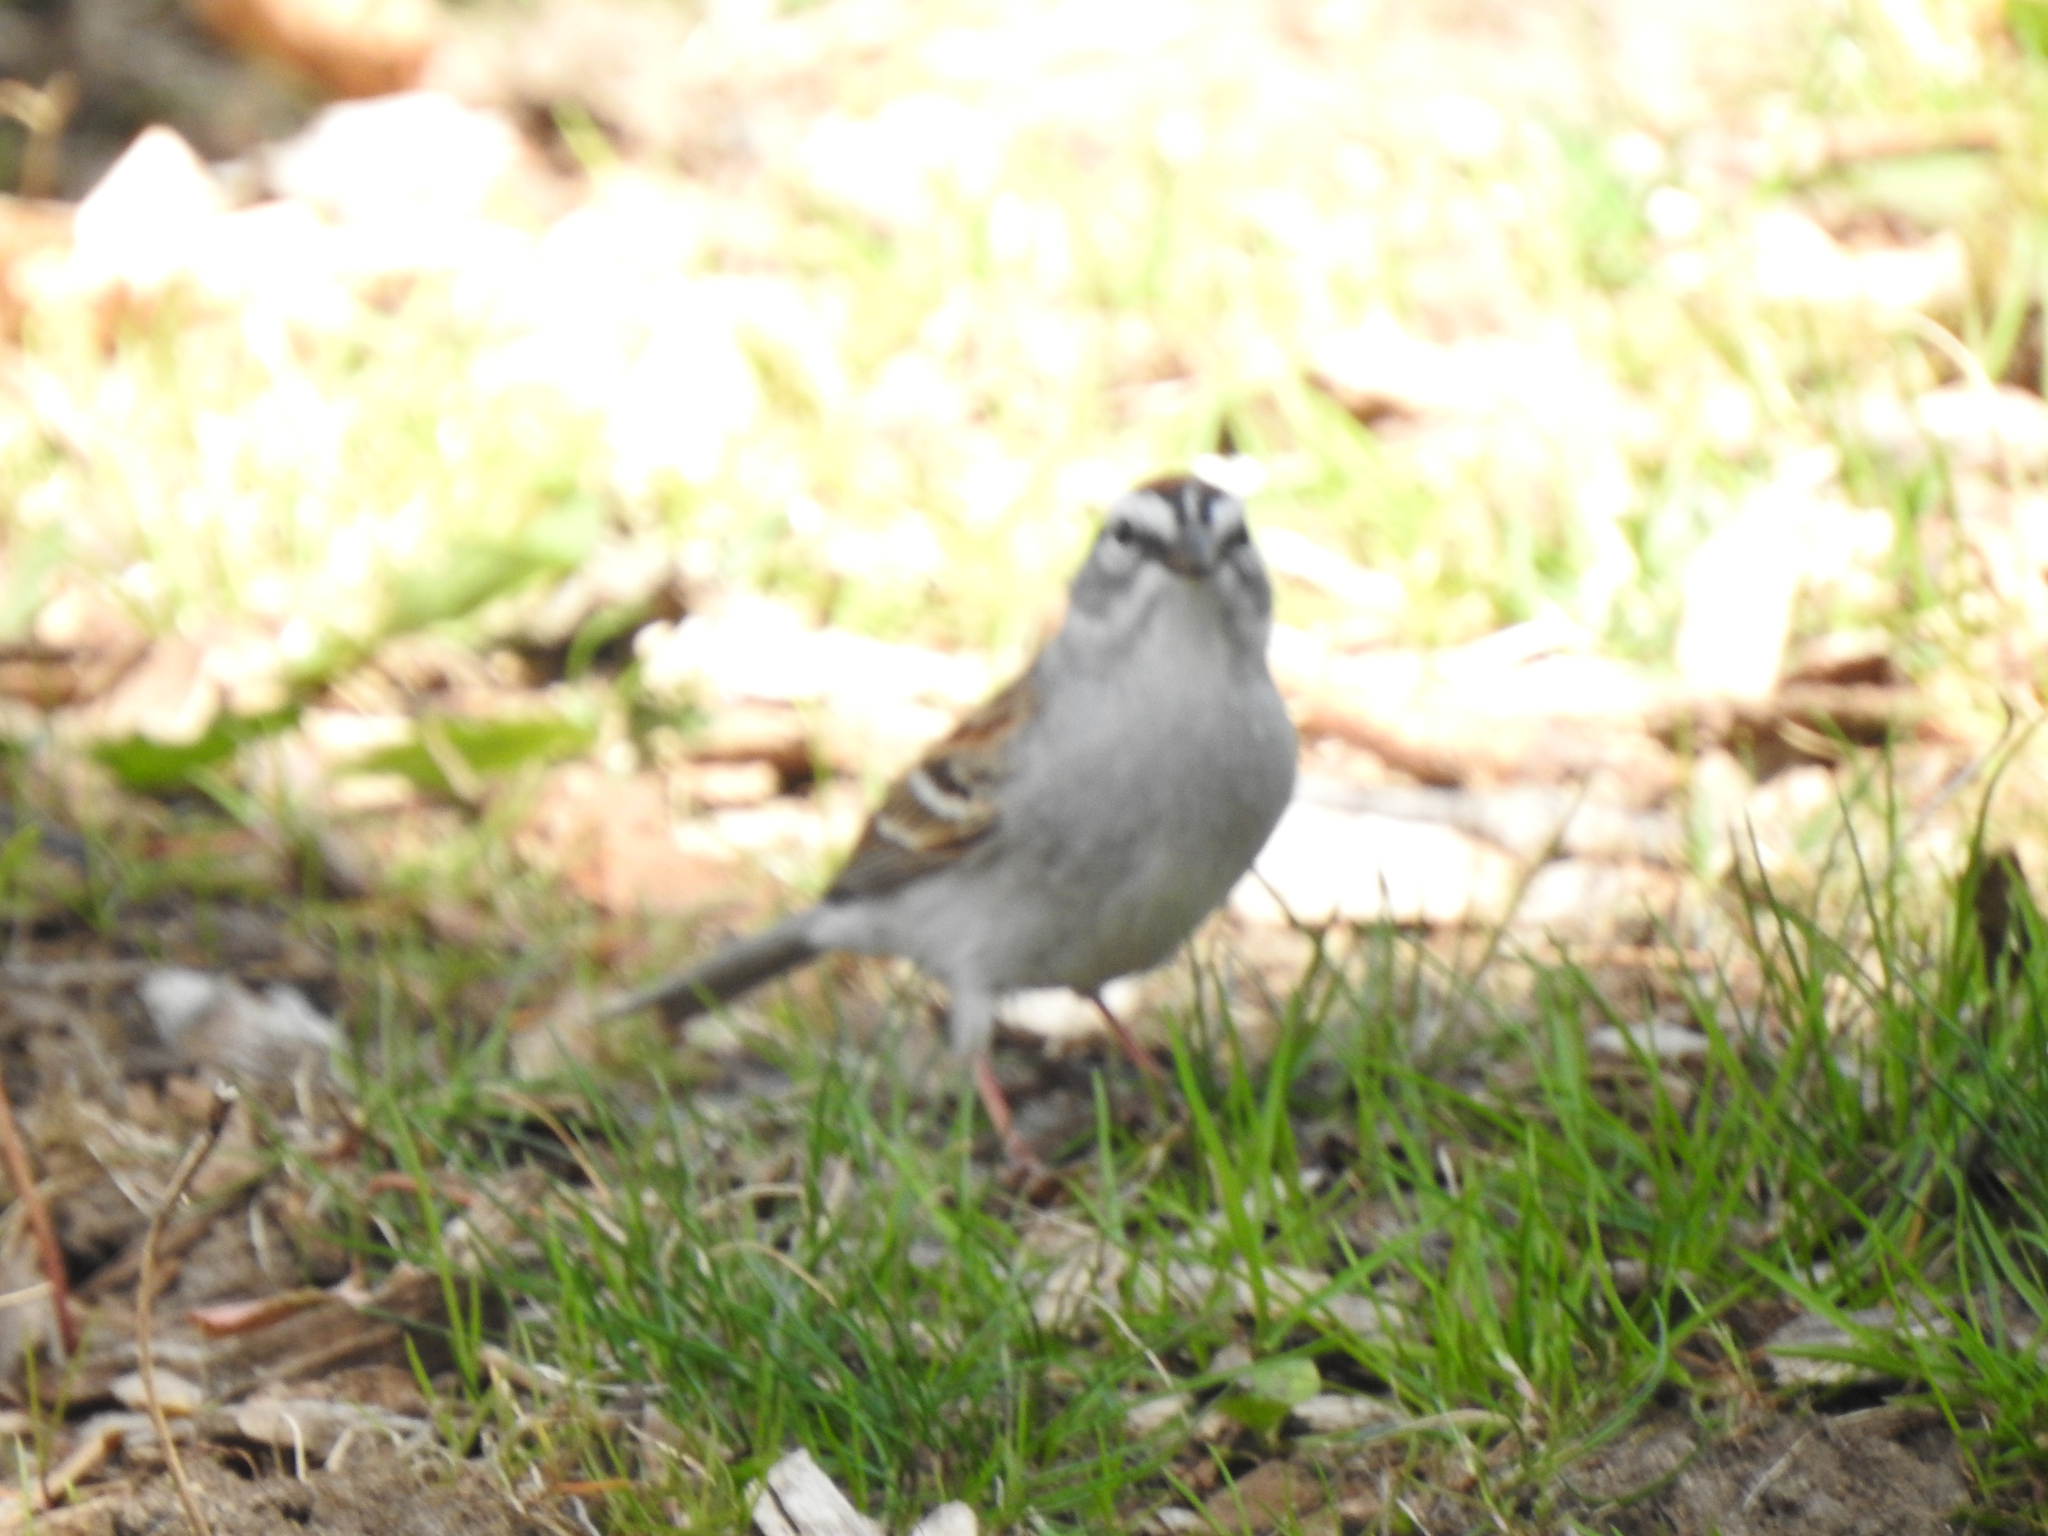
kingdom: Animalia
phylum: Chordata
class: Aves
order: Passeriformes
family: Passerellidae
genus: Spizella
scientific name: Spizella passerina
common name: Chipping sparrow
